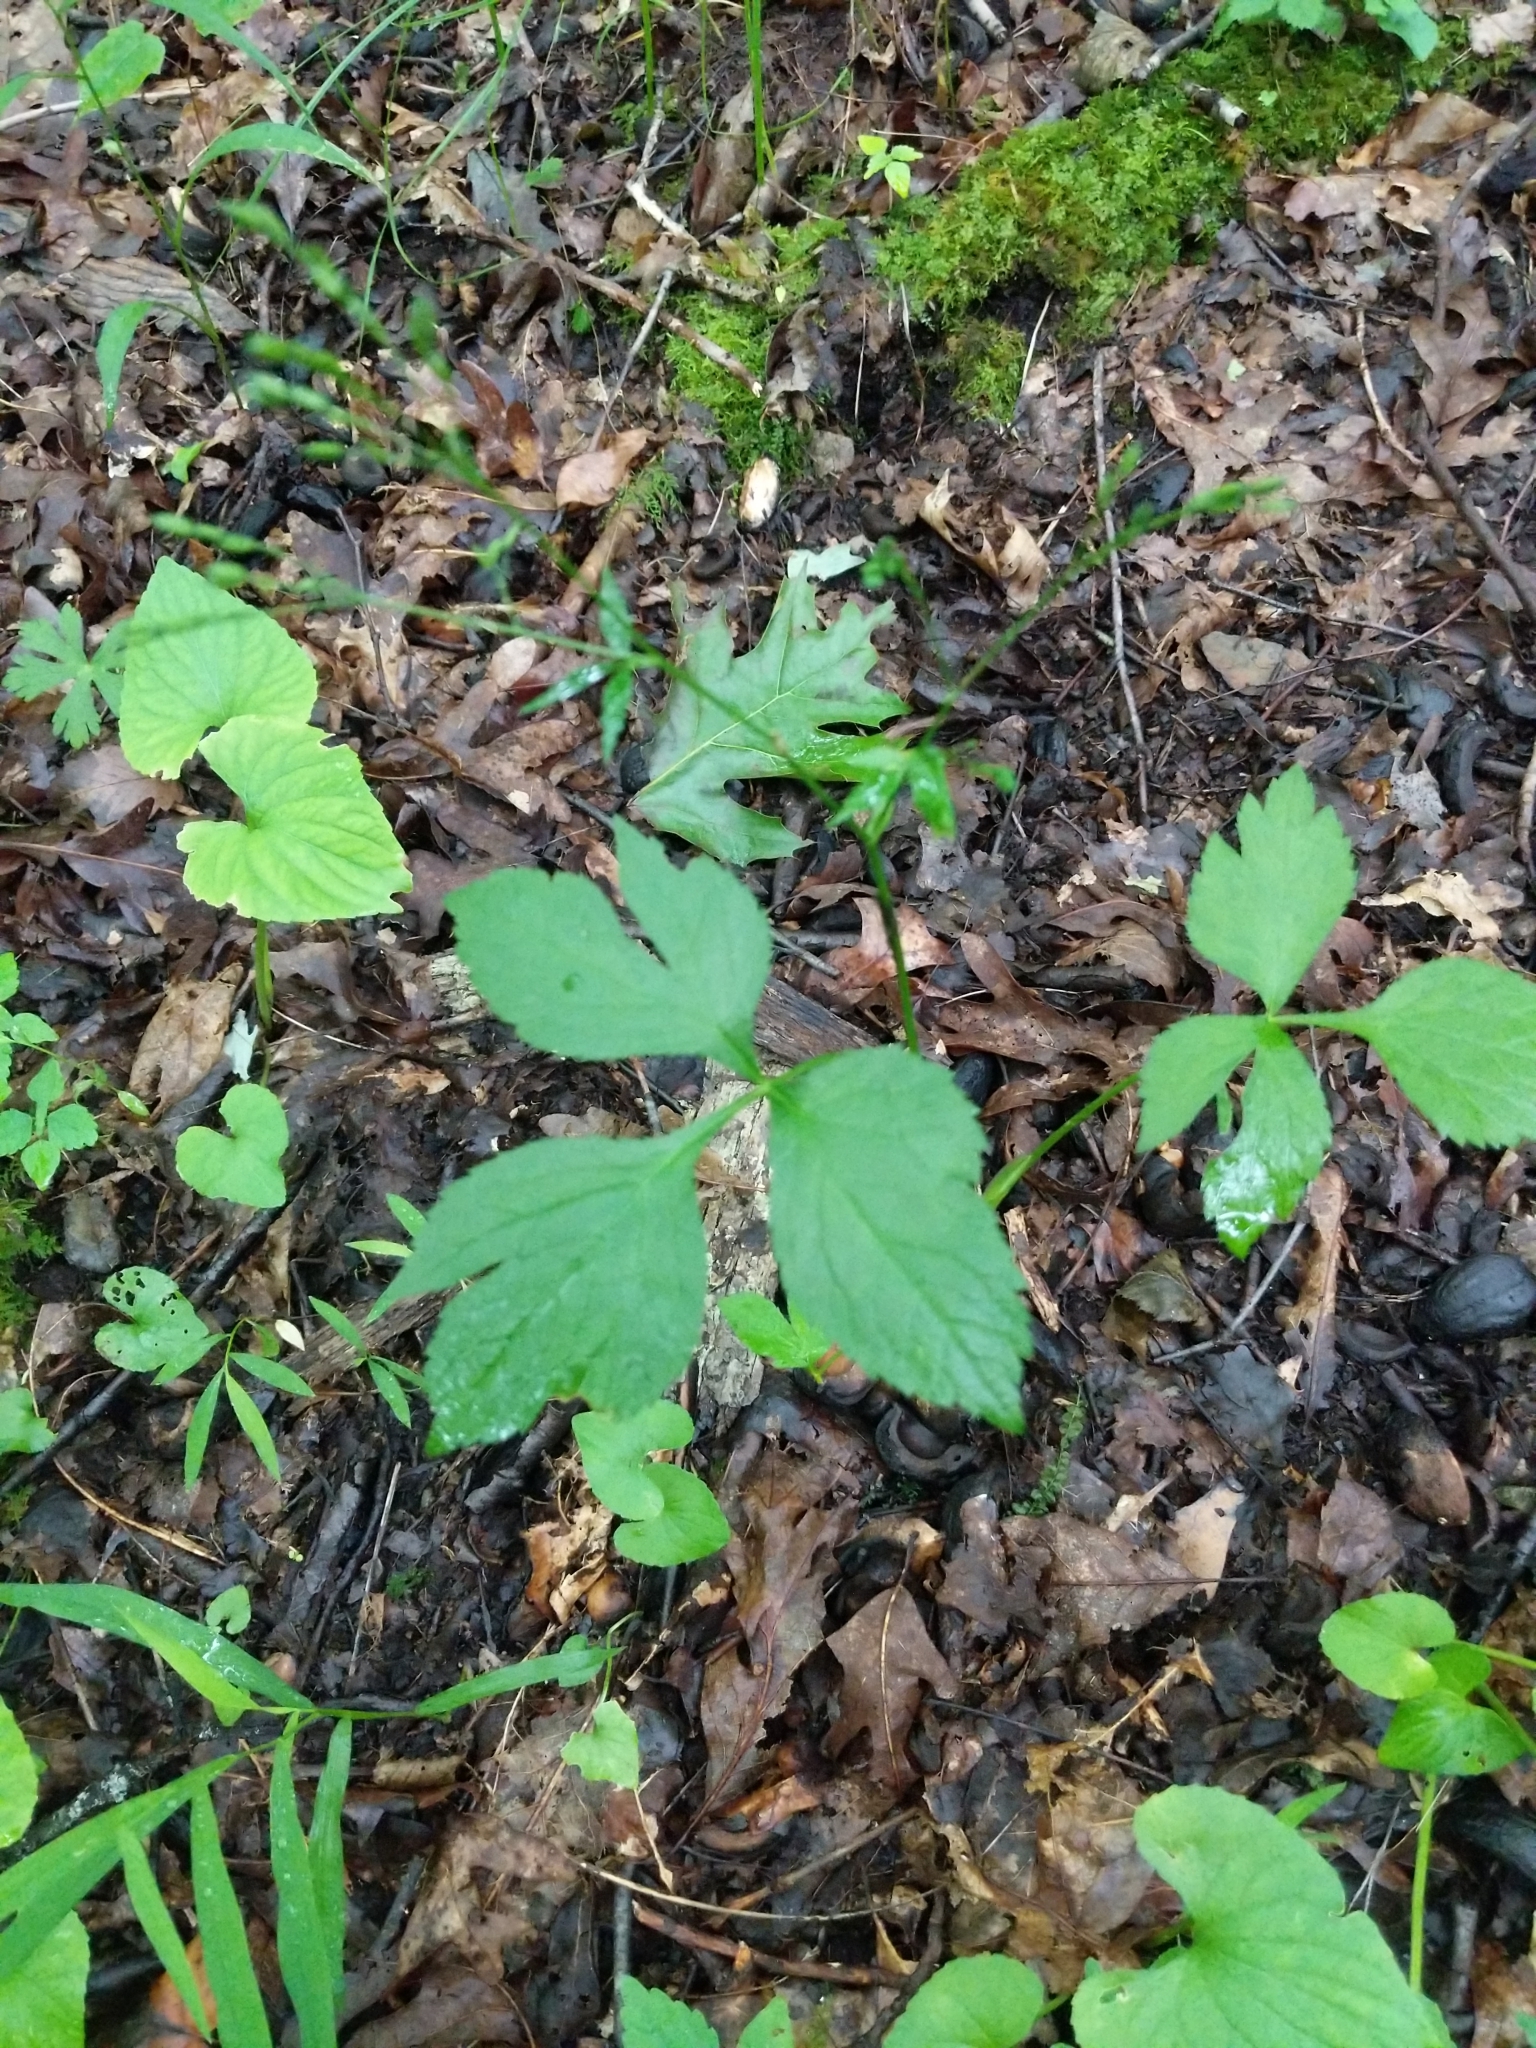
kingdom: Plantae
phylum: Tracheophyta
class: Magnoliopsida
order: Apiales
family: Apiaceae
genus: Cryptotaenia
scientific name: Cryptotaenia canadensis
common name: Honewort
